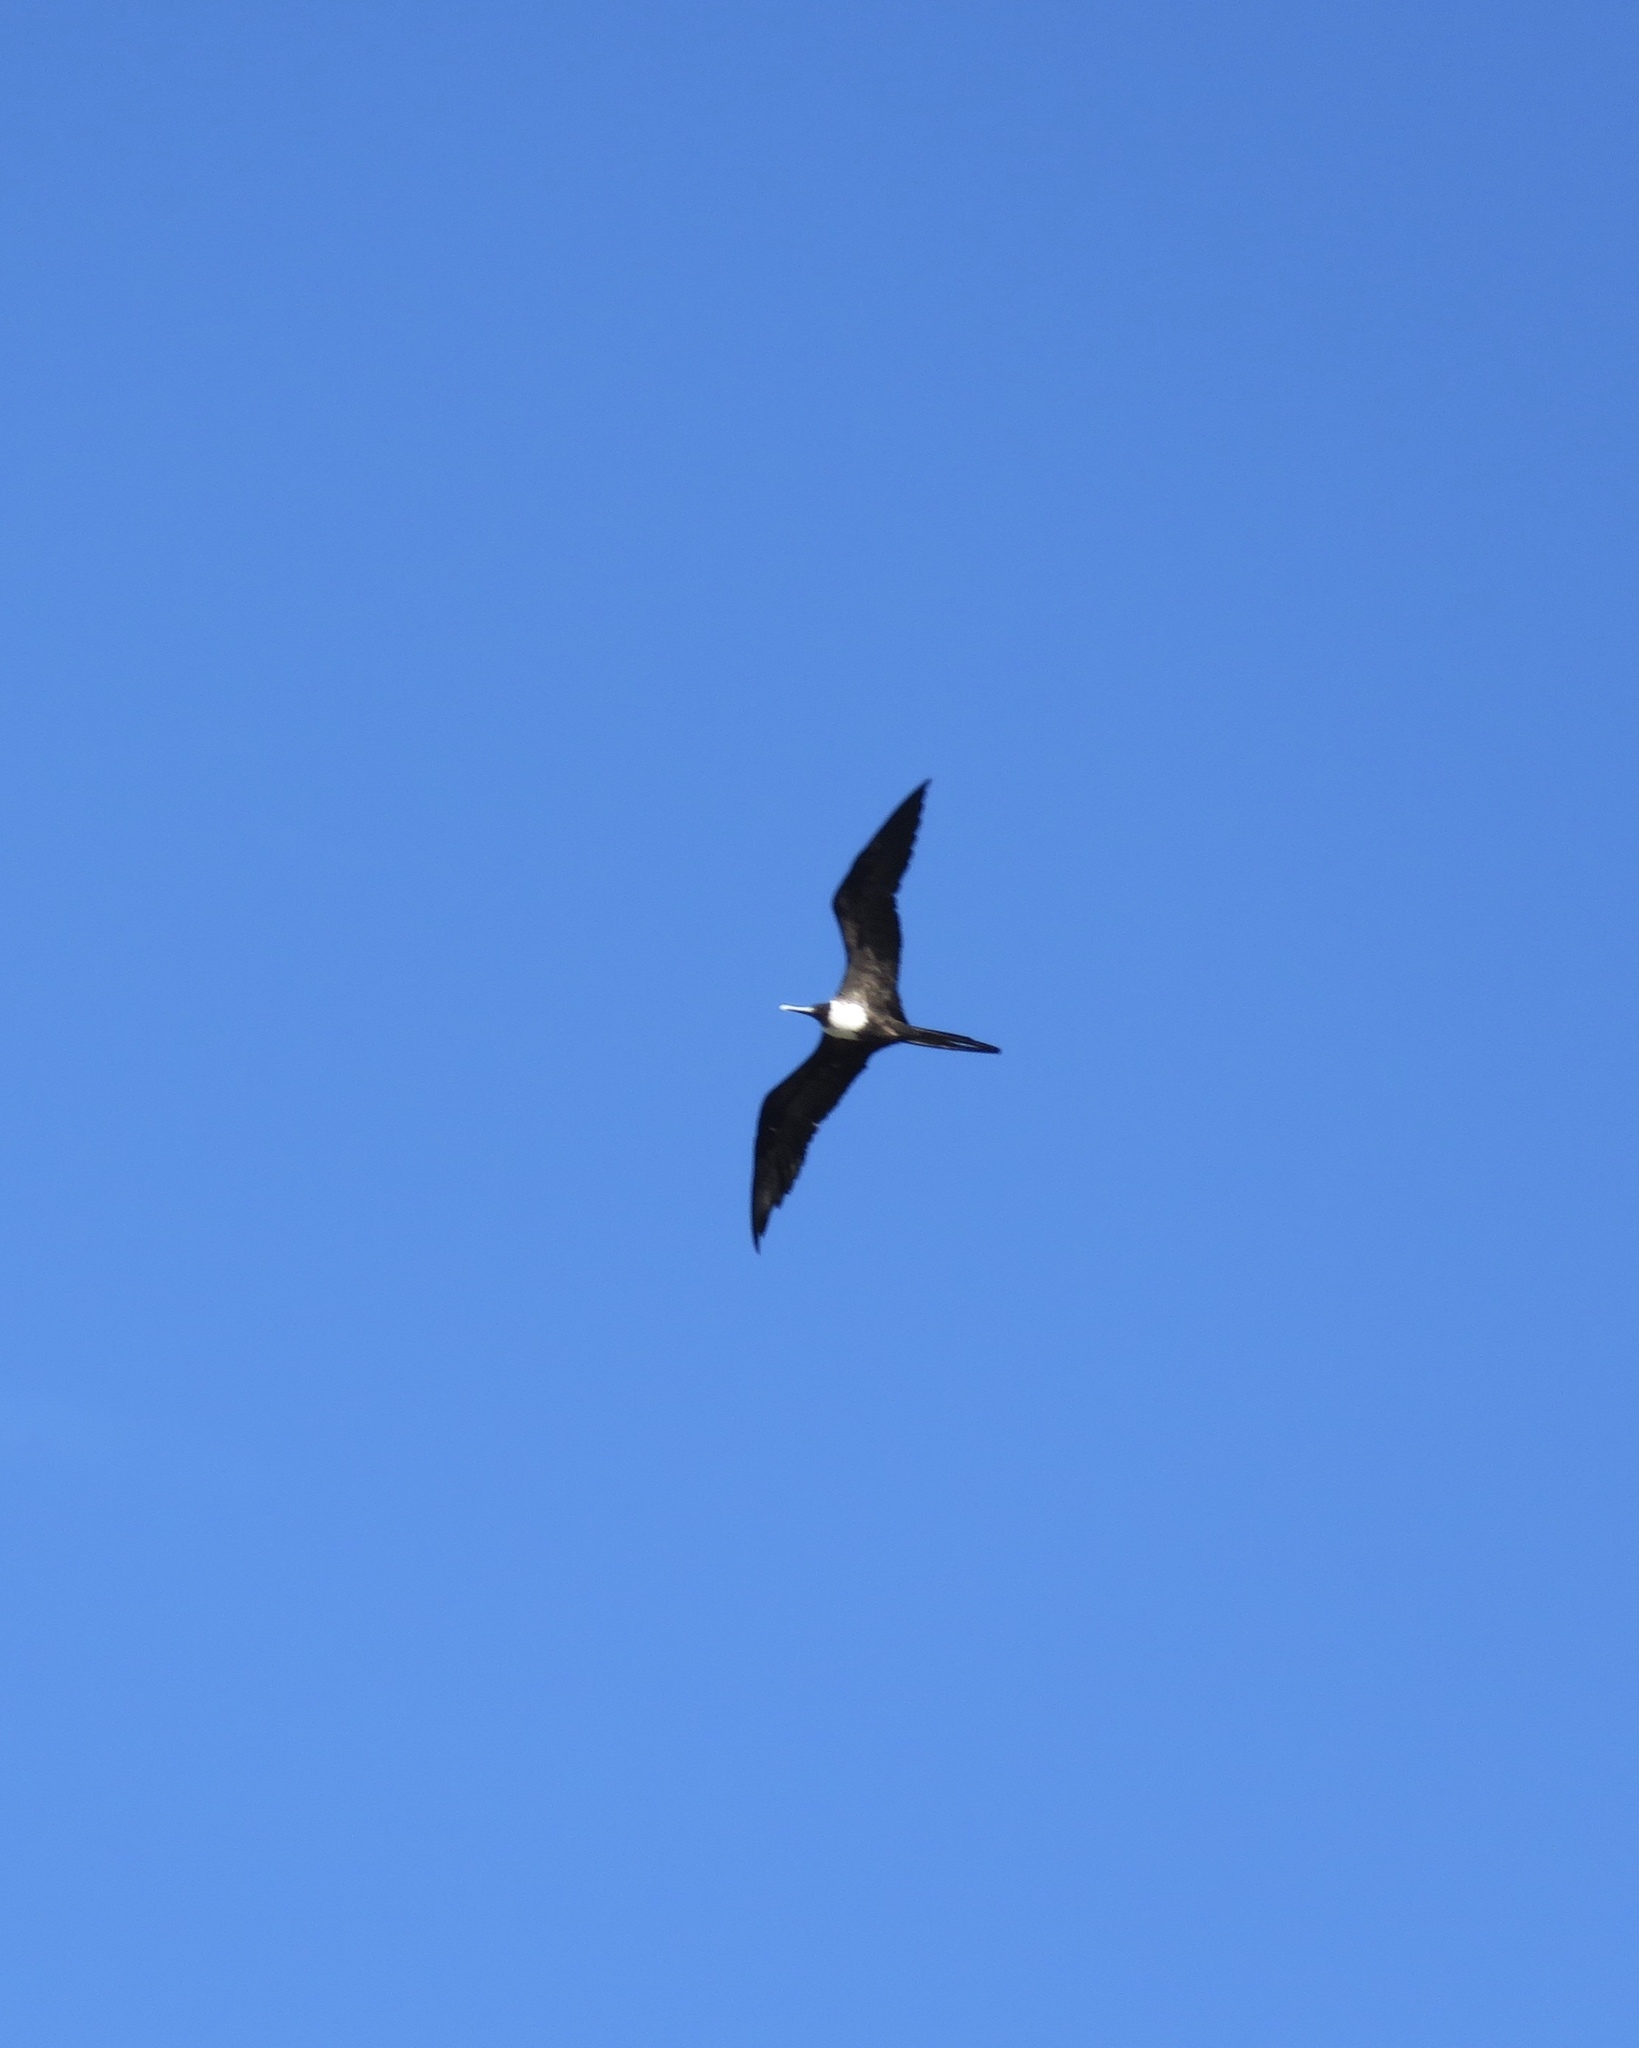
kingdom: Animalia
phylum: Chordata
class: Aves
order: Suliformes
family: Fregatidae
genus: Fregata
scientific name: Fregata magnificens
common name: Magnificent frigatebird
